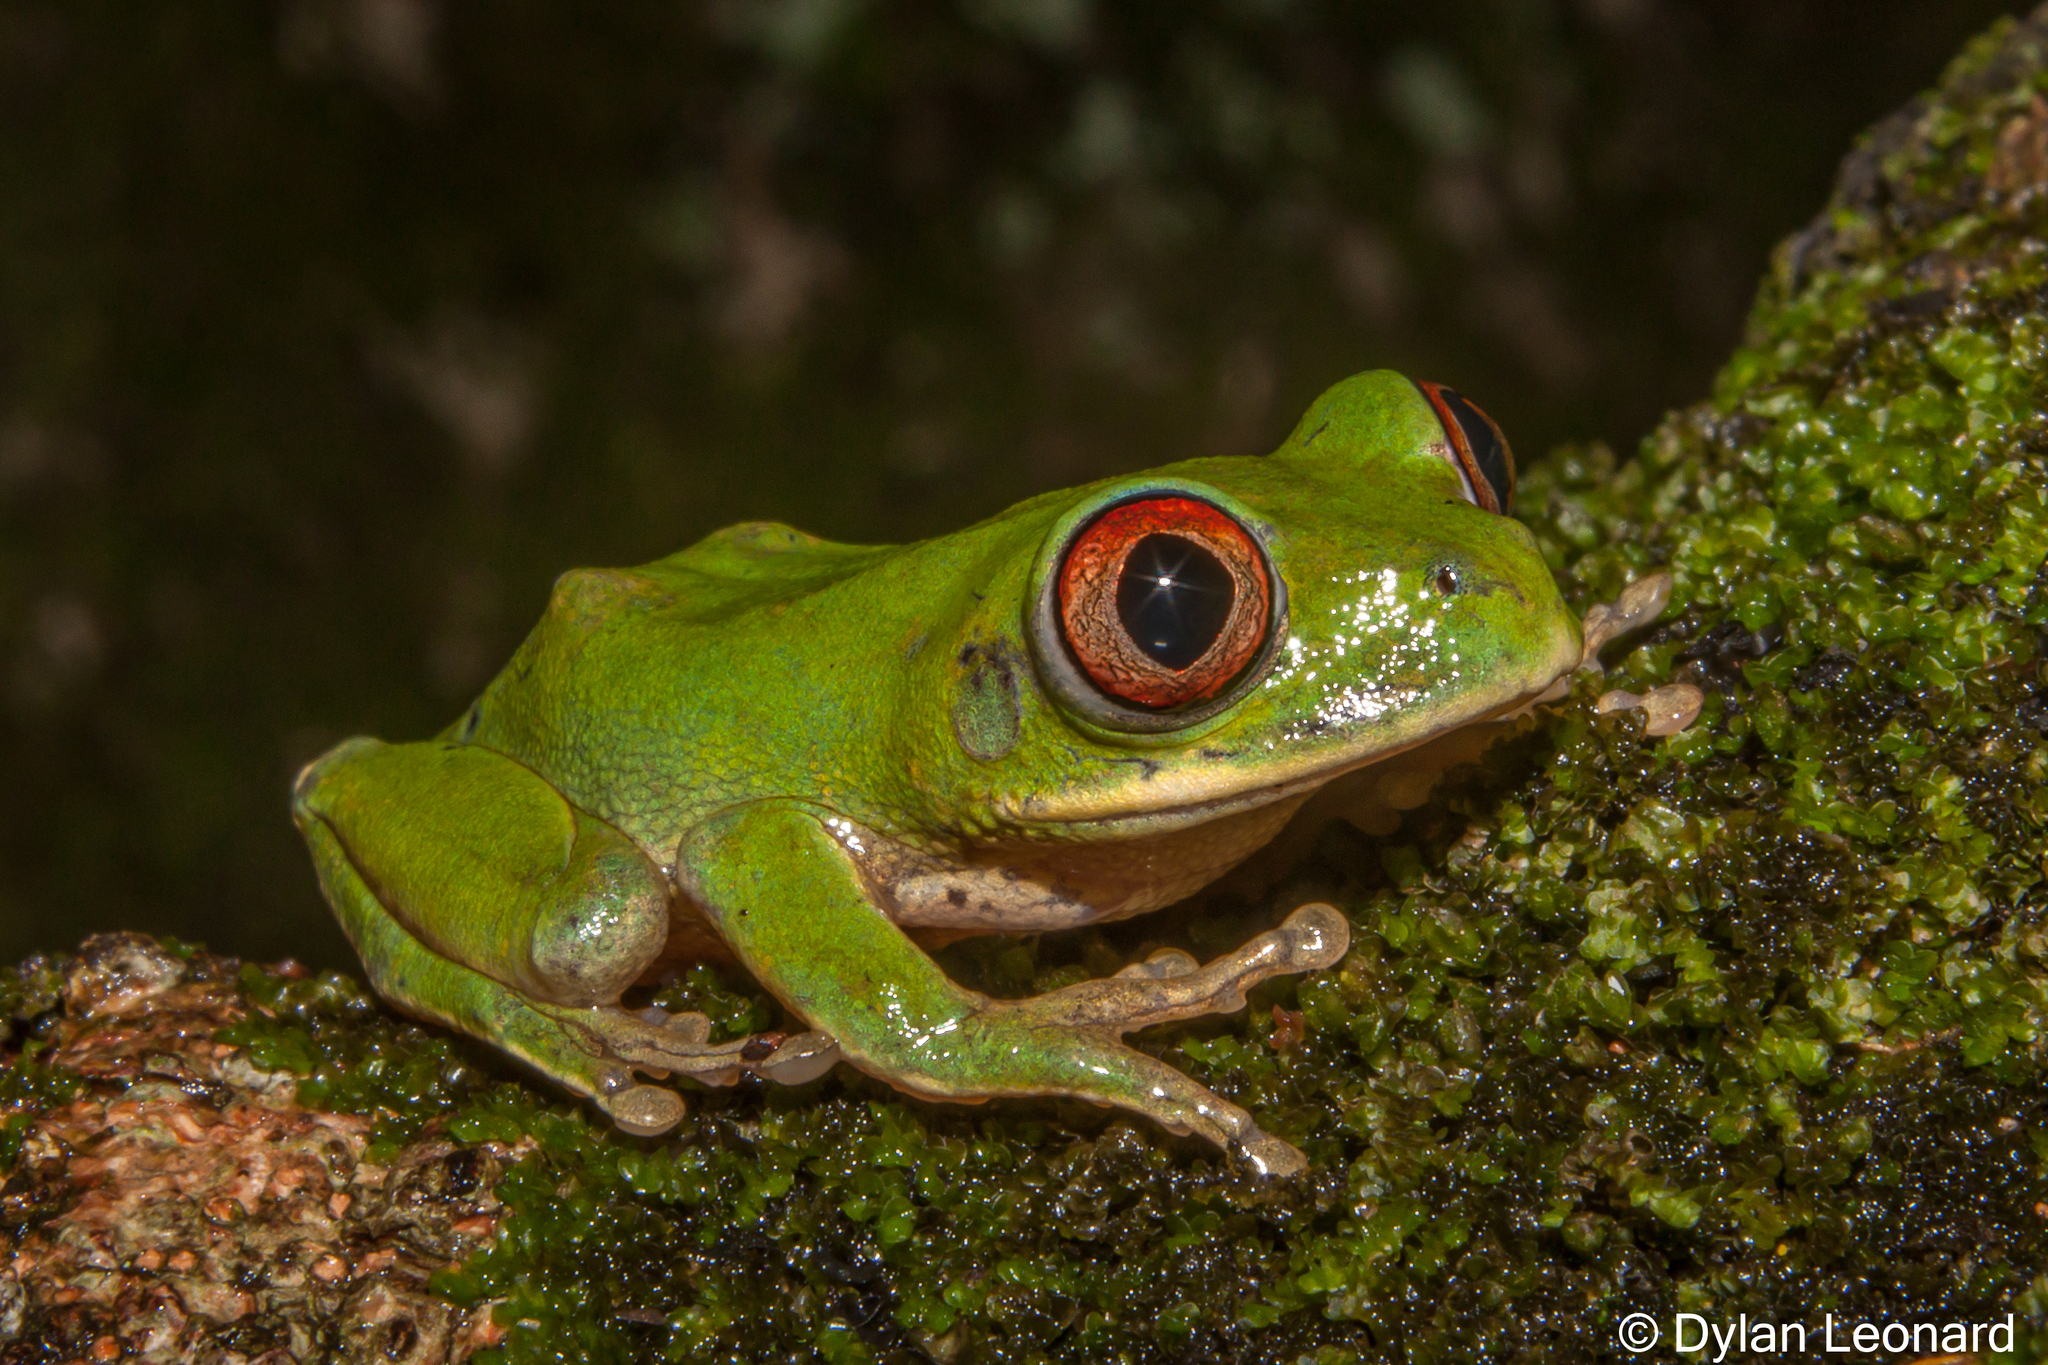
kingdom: Animalia
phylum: Chordata
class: Amphibia
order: Anura
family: Arthroleptidae
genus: Leptopelis
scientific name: Leptopelis natalensis
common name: Natal tree frog
